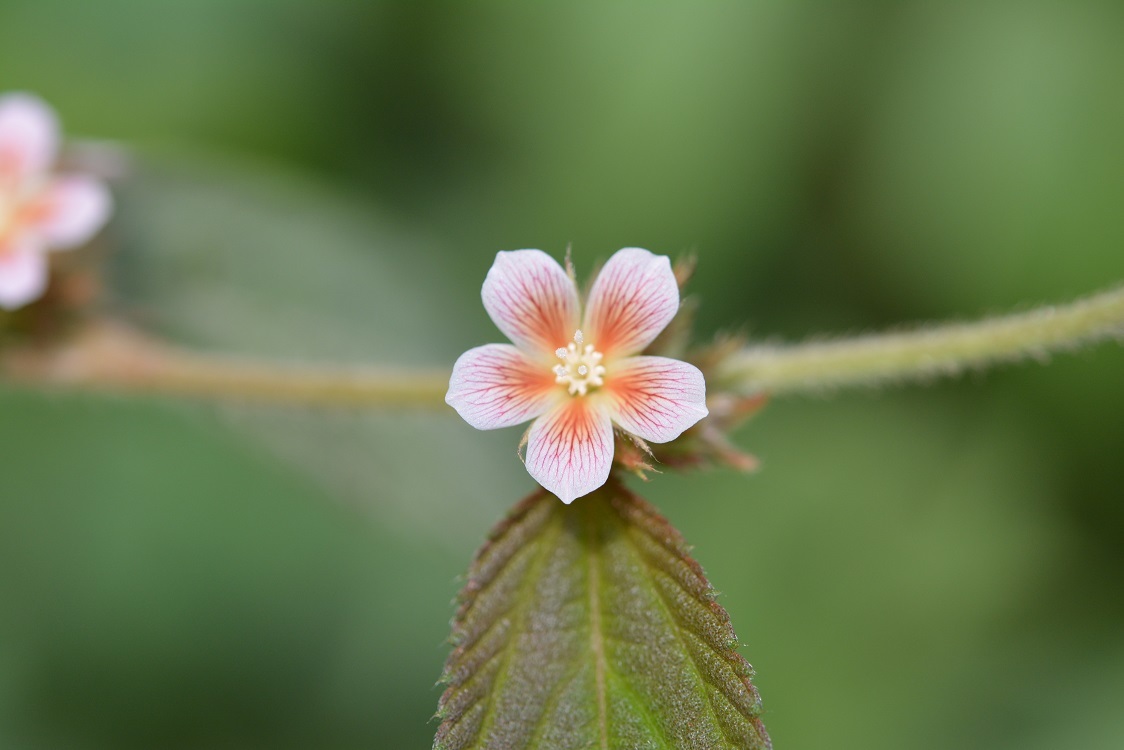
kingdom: Plantae
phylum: Tracheophyta
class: Magnoliopsida
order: Malvales
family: Malvaceae
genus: Melochia
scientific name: Melochia nodiflora
